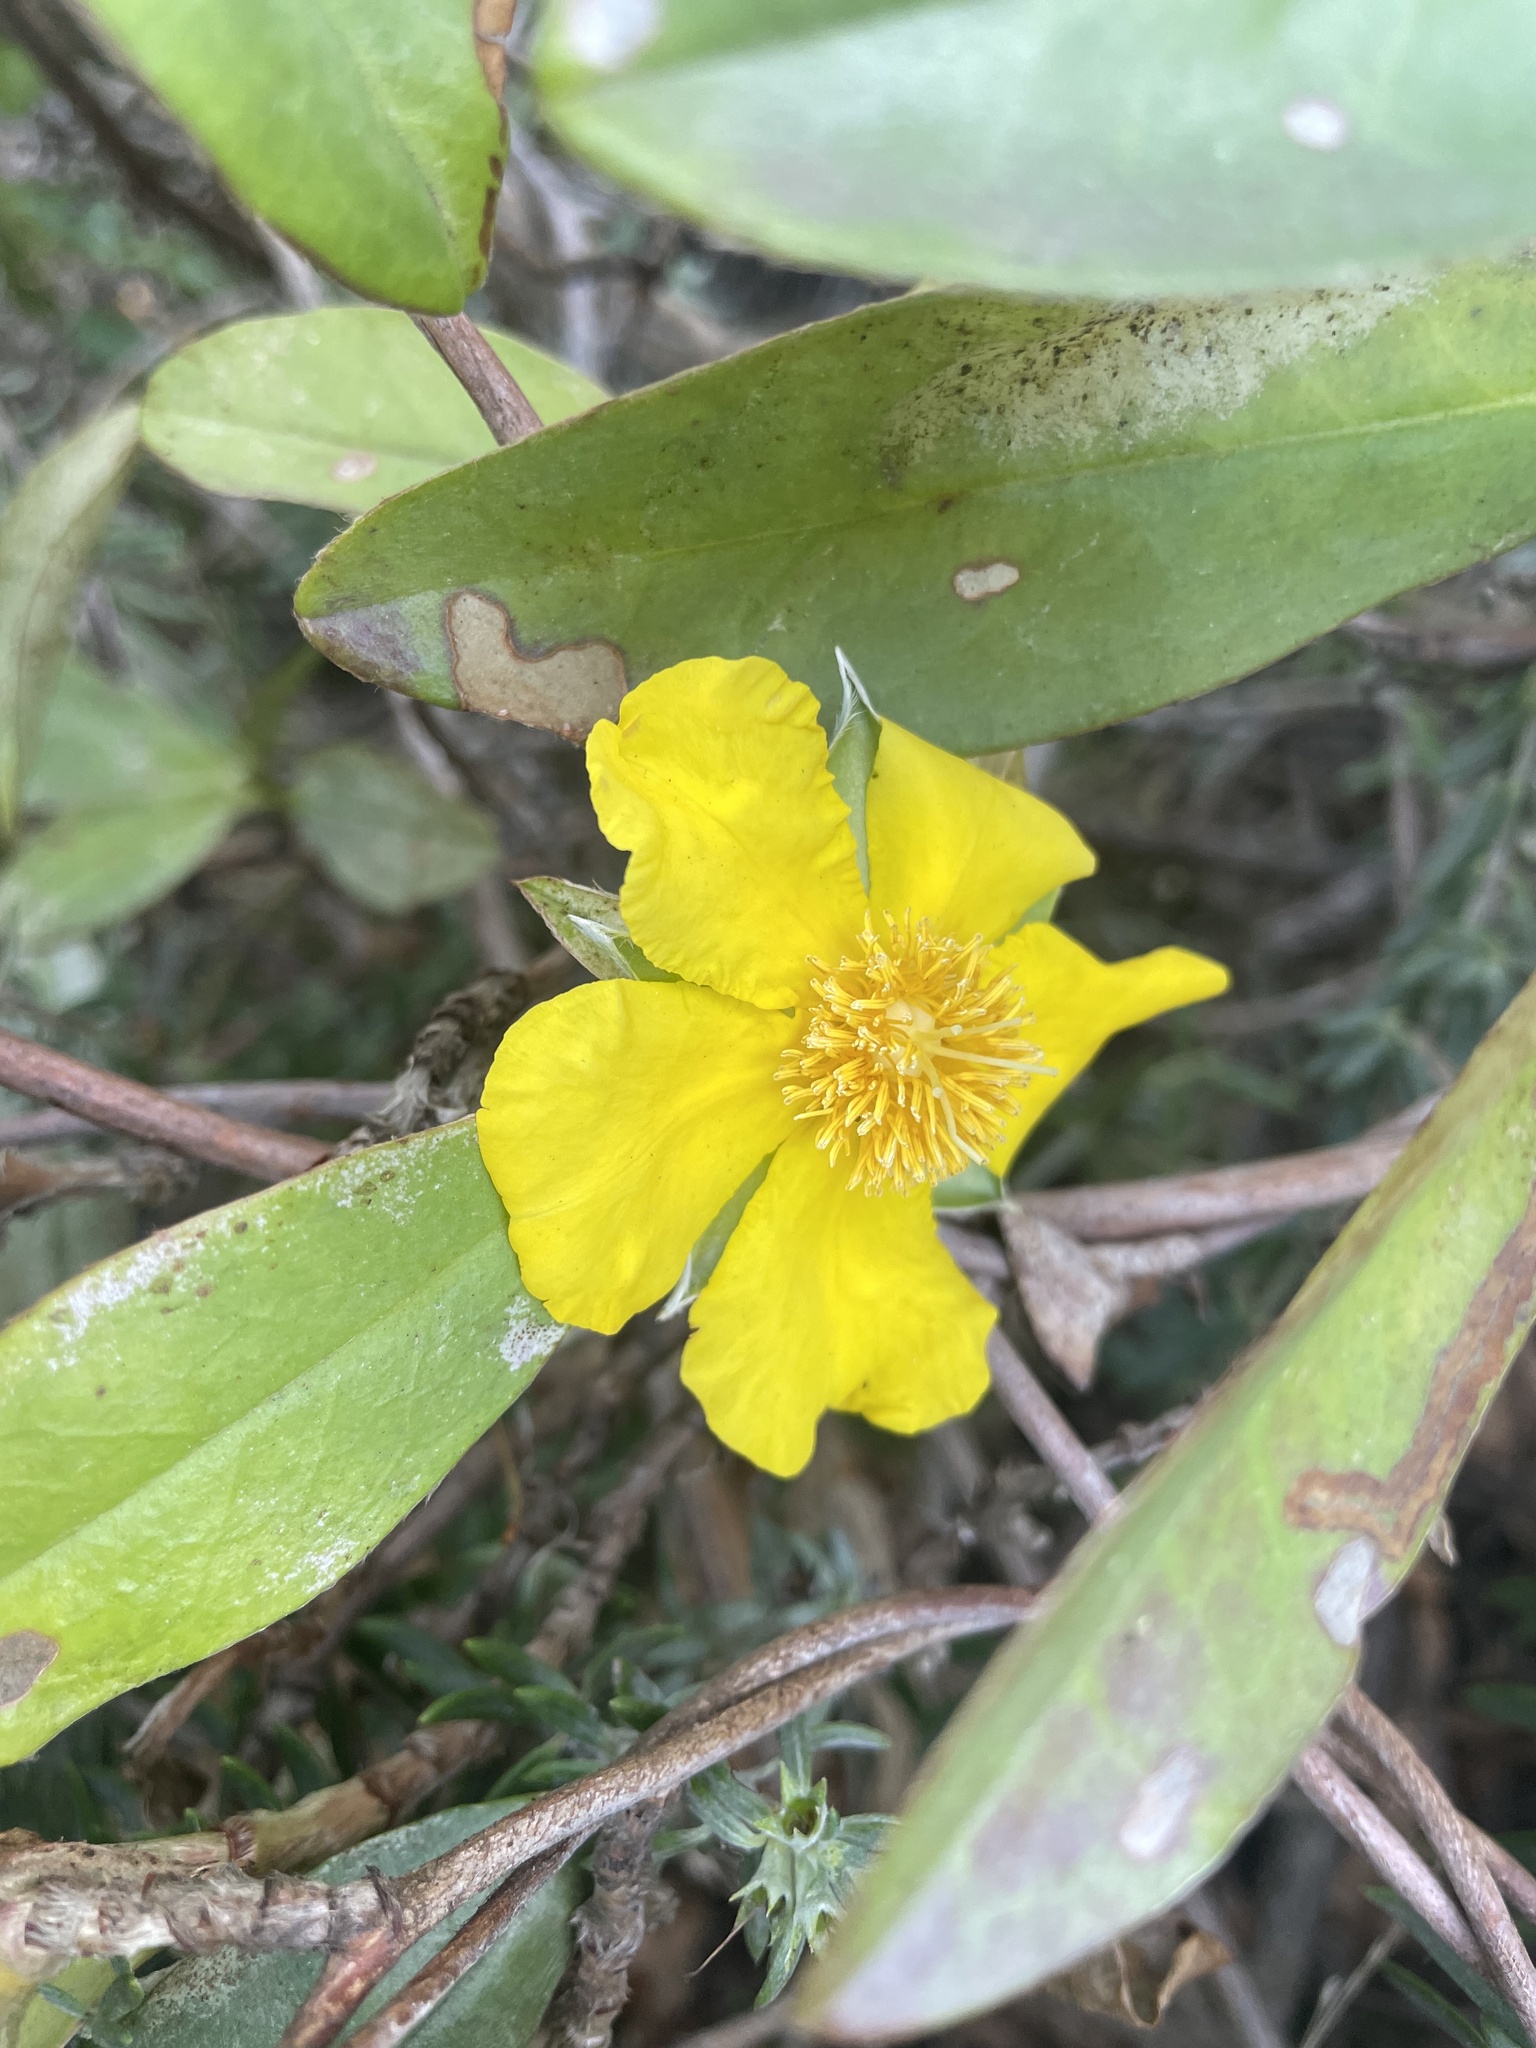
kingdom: Plantae
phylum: Tracheophyta
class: Magnoliopsida
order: Dilleniales
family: Dilleniaceae
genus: Hibbertia
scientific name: Hibbertia scandens
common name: Climbing guinea-flower
